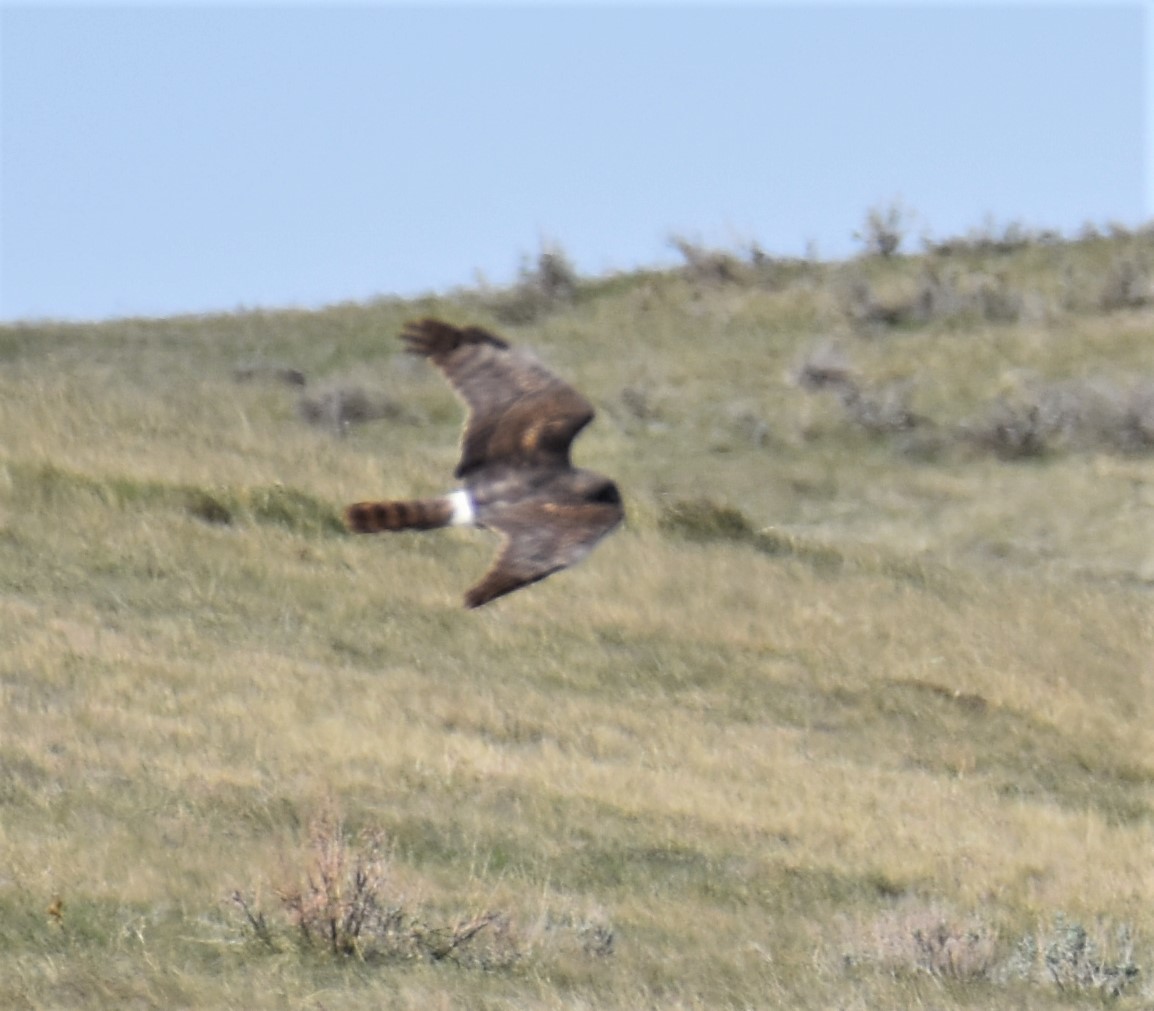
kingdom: Animalia
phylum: Chordata
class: Aves
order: Accipitriformes
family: Accipitridae
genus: Circus
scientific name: Circus cyaneus
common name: Hen harrier
